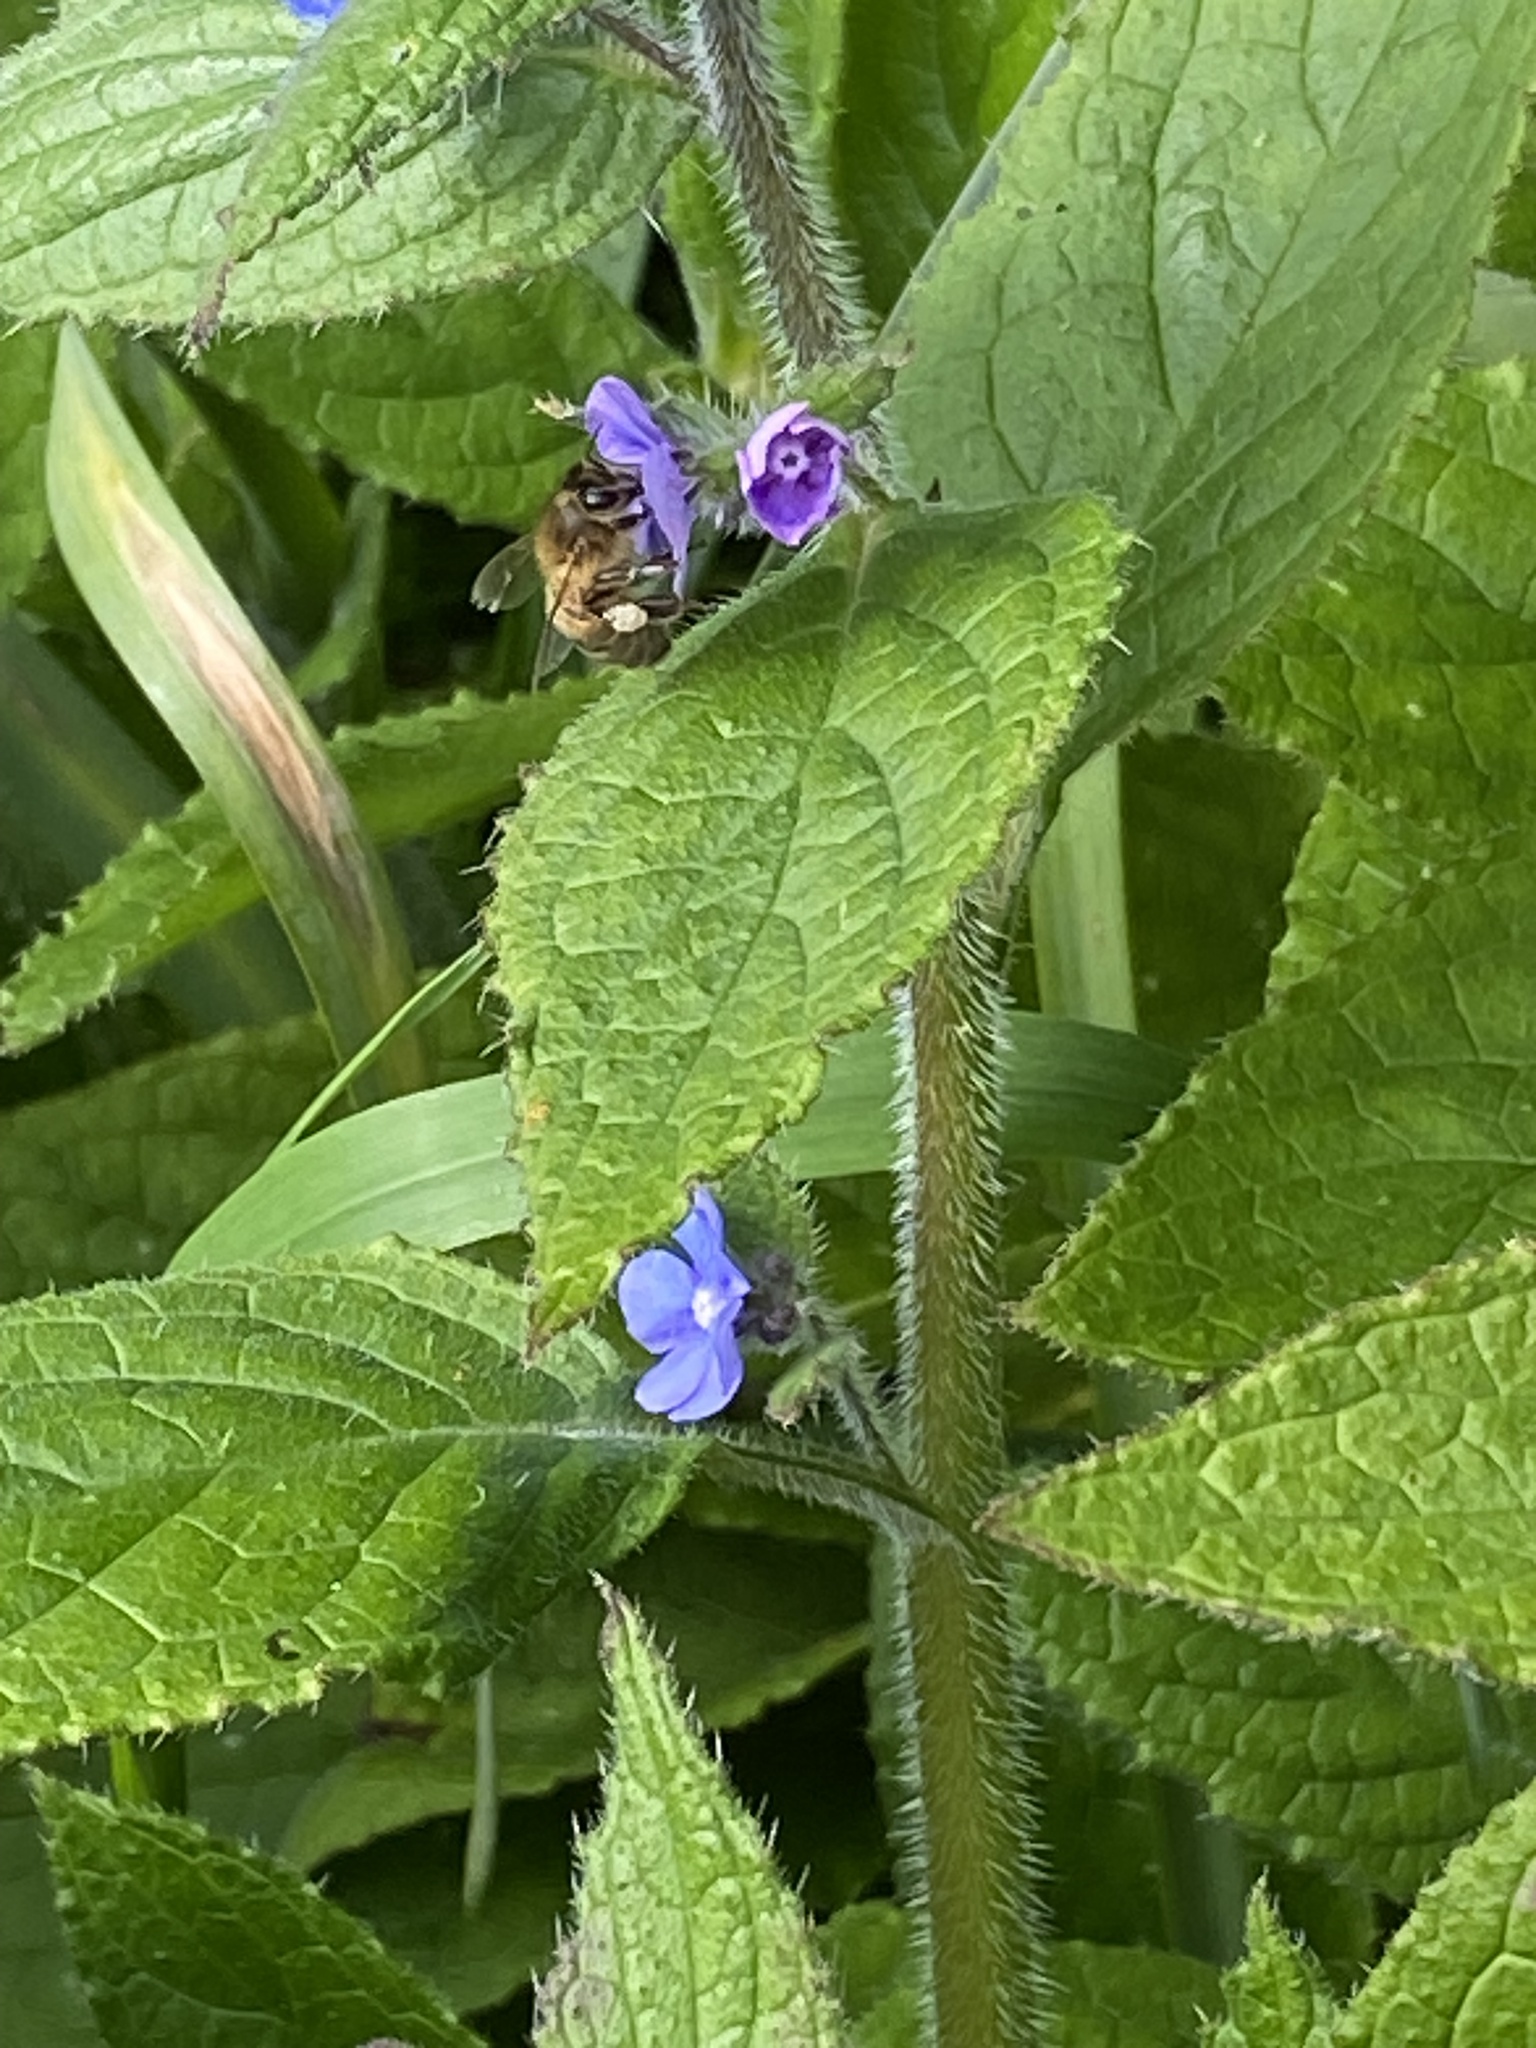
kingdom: Animalia
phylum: Arthropoda
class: Insecta
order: Hymenoptera
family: Apidae
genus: Apis
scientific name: Apis mellifera
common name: Honey bee
